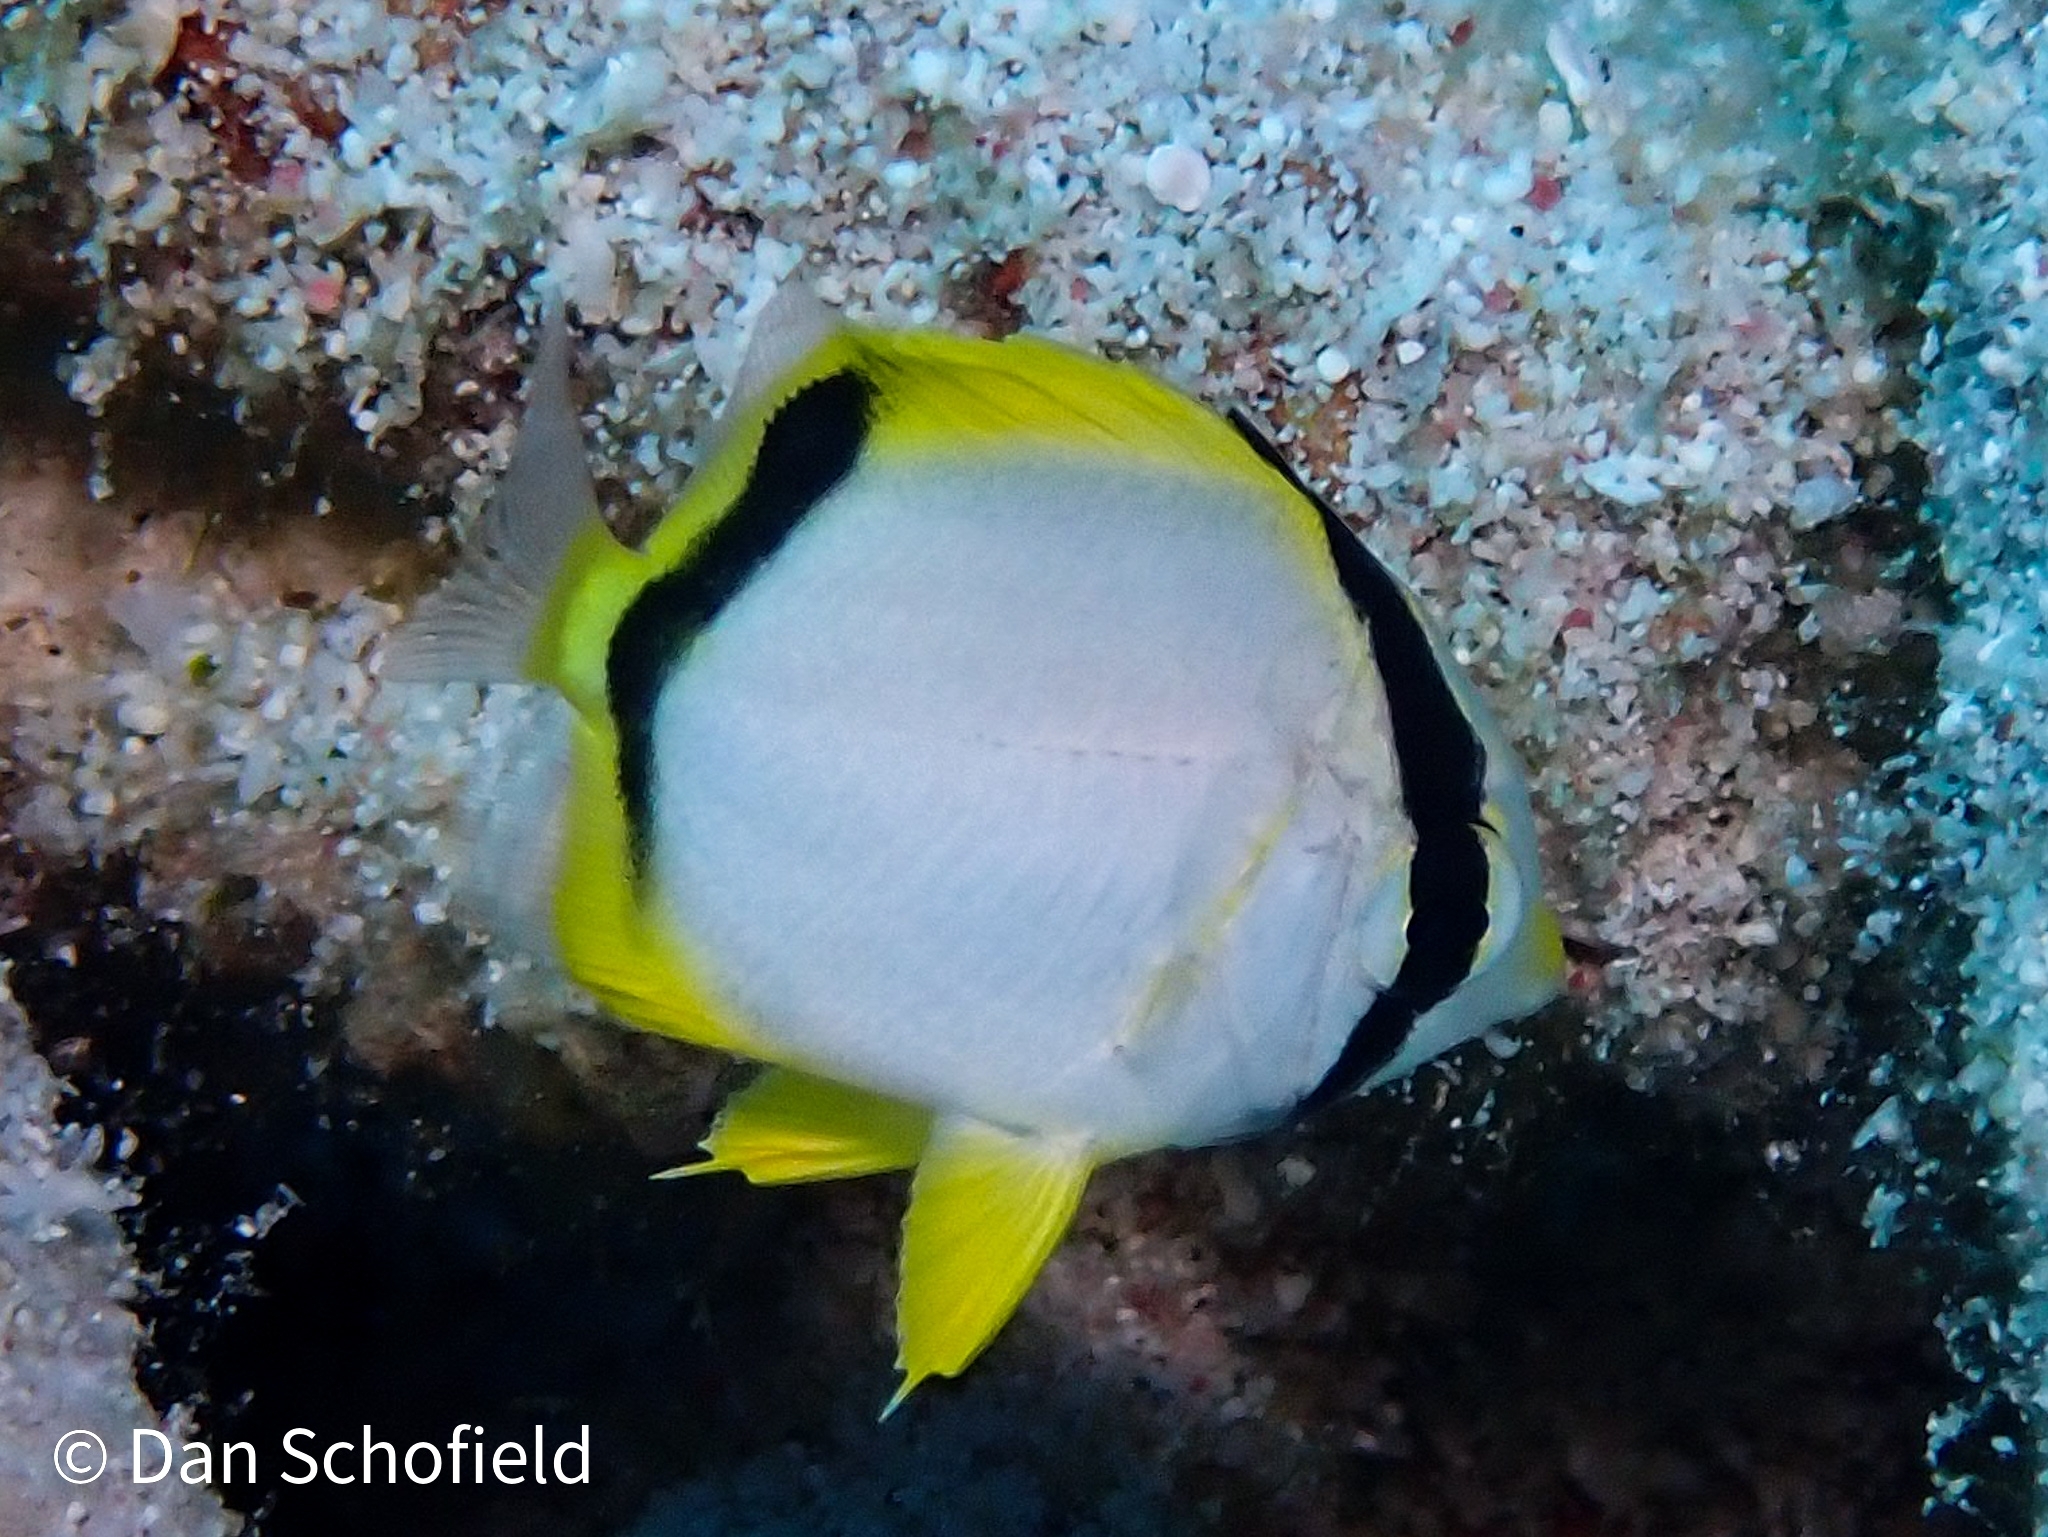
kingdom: Animalia
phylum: Chordata
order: Perciformes
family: Chaetodontidae
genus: Chaetodon
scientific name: Chaetodon ocellatus
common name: Spotfin butterflyfish
